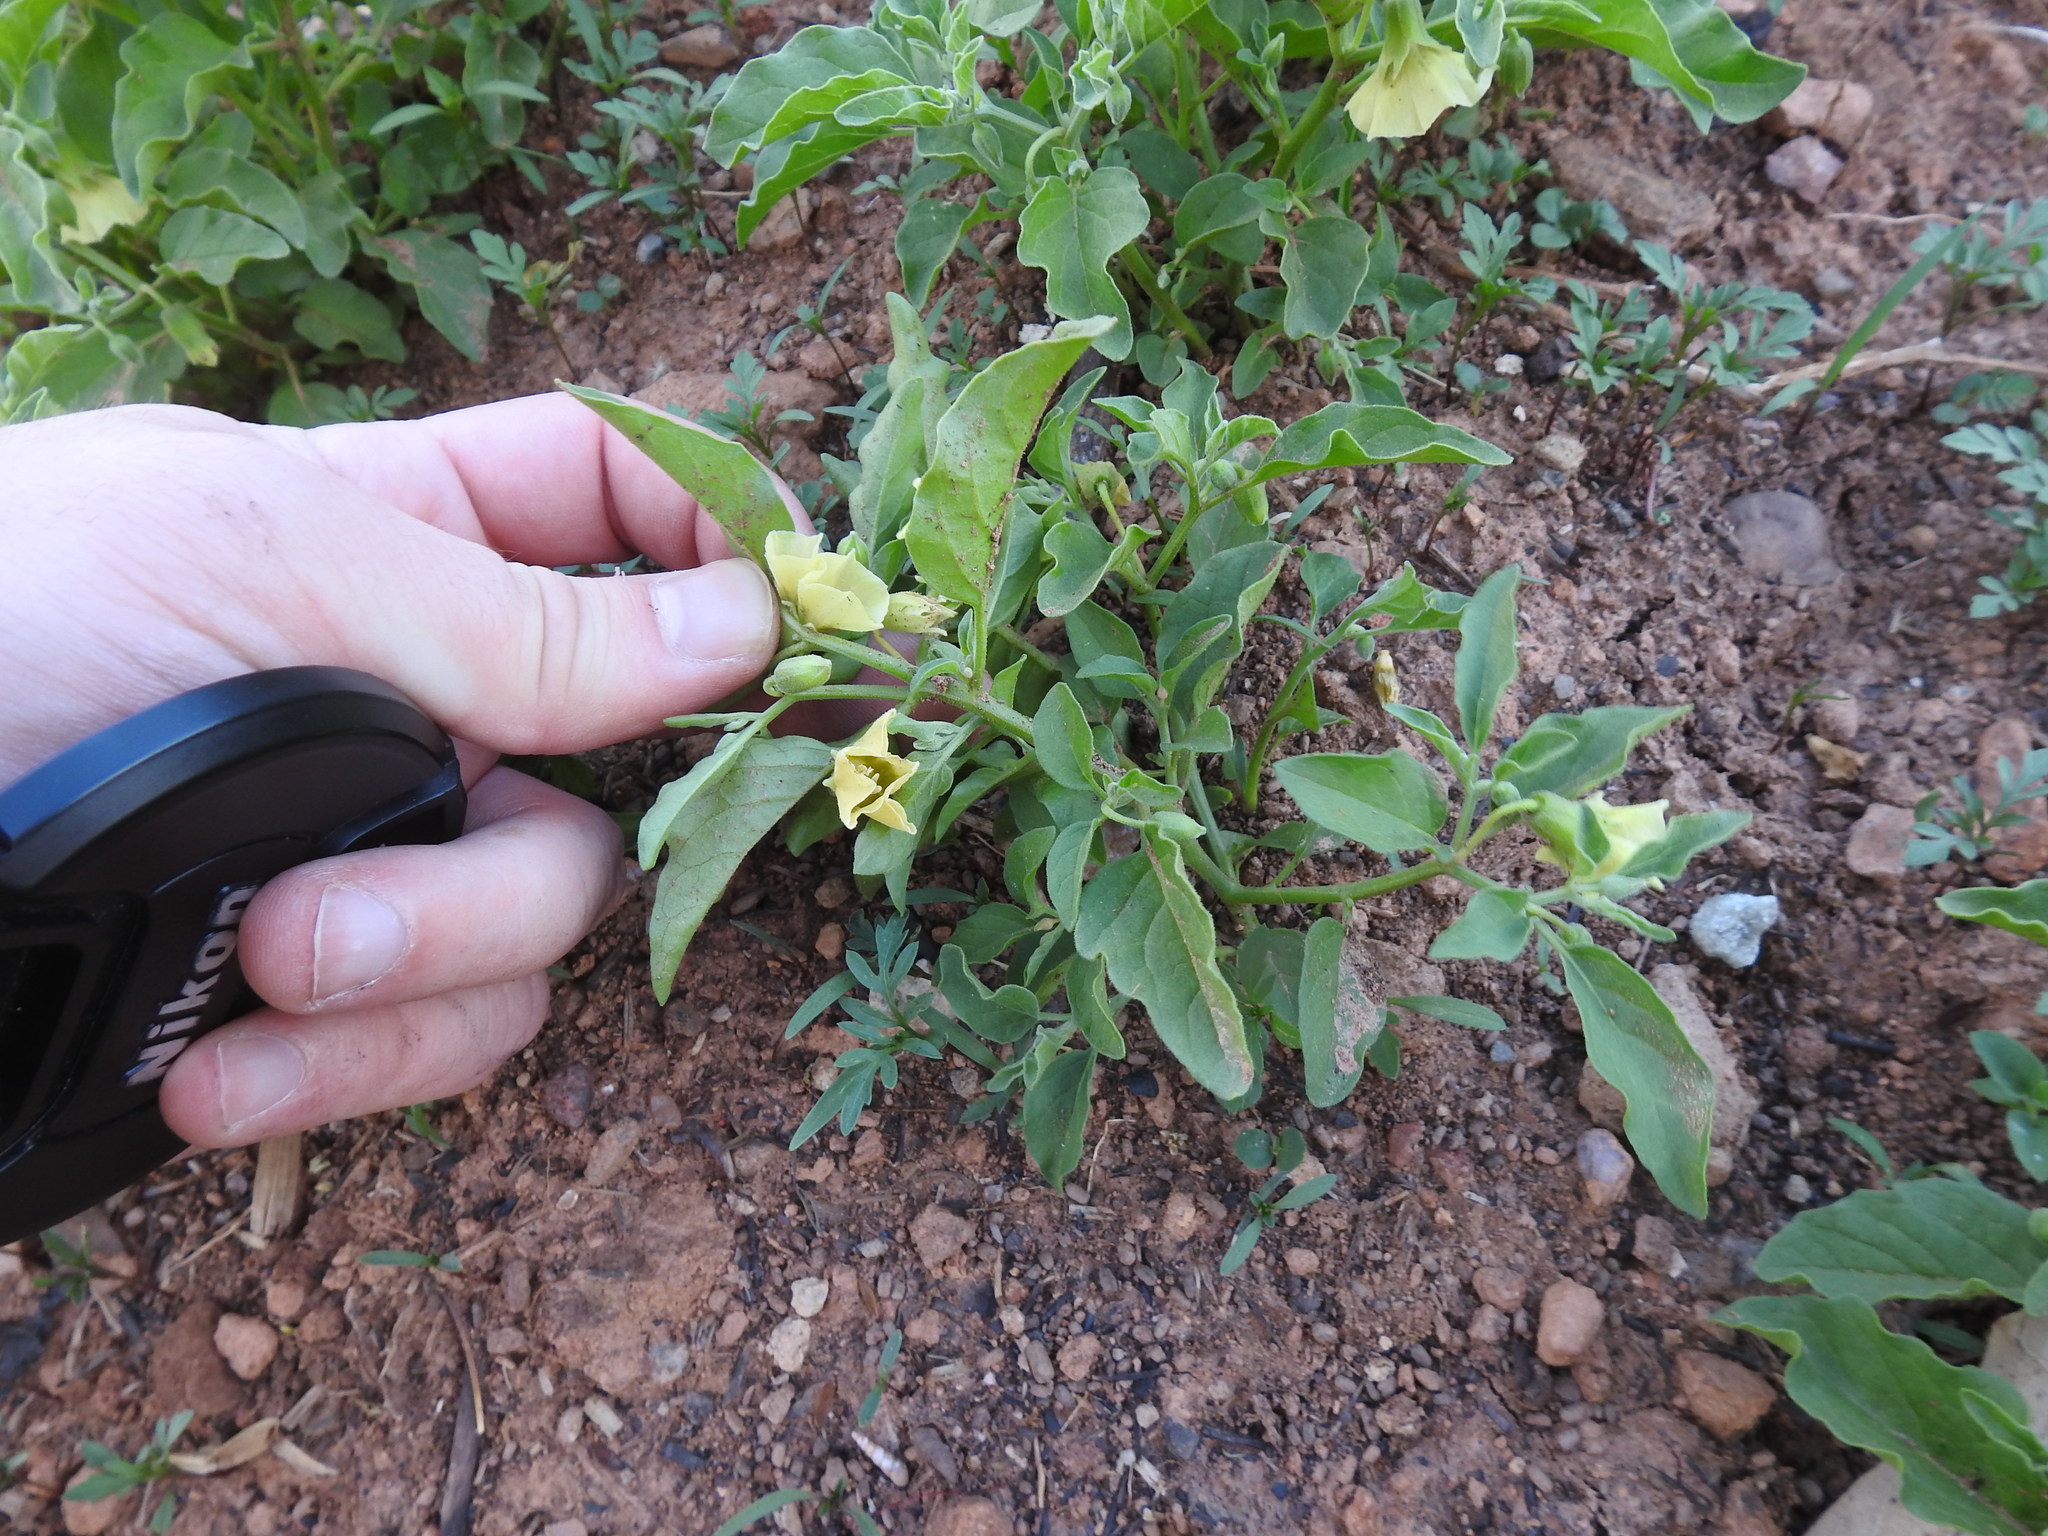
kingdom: Plantae
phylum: Tracheophyta
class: Magnoliopsida
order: Solanales
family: Solanaceae
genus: Physalis
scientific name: Physalis viscosa
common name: Stellate ground-cherry
